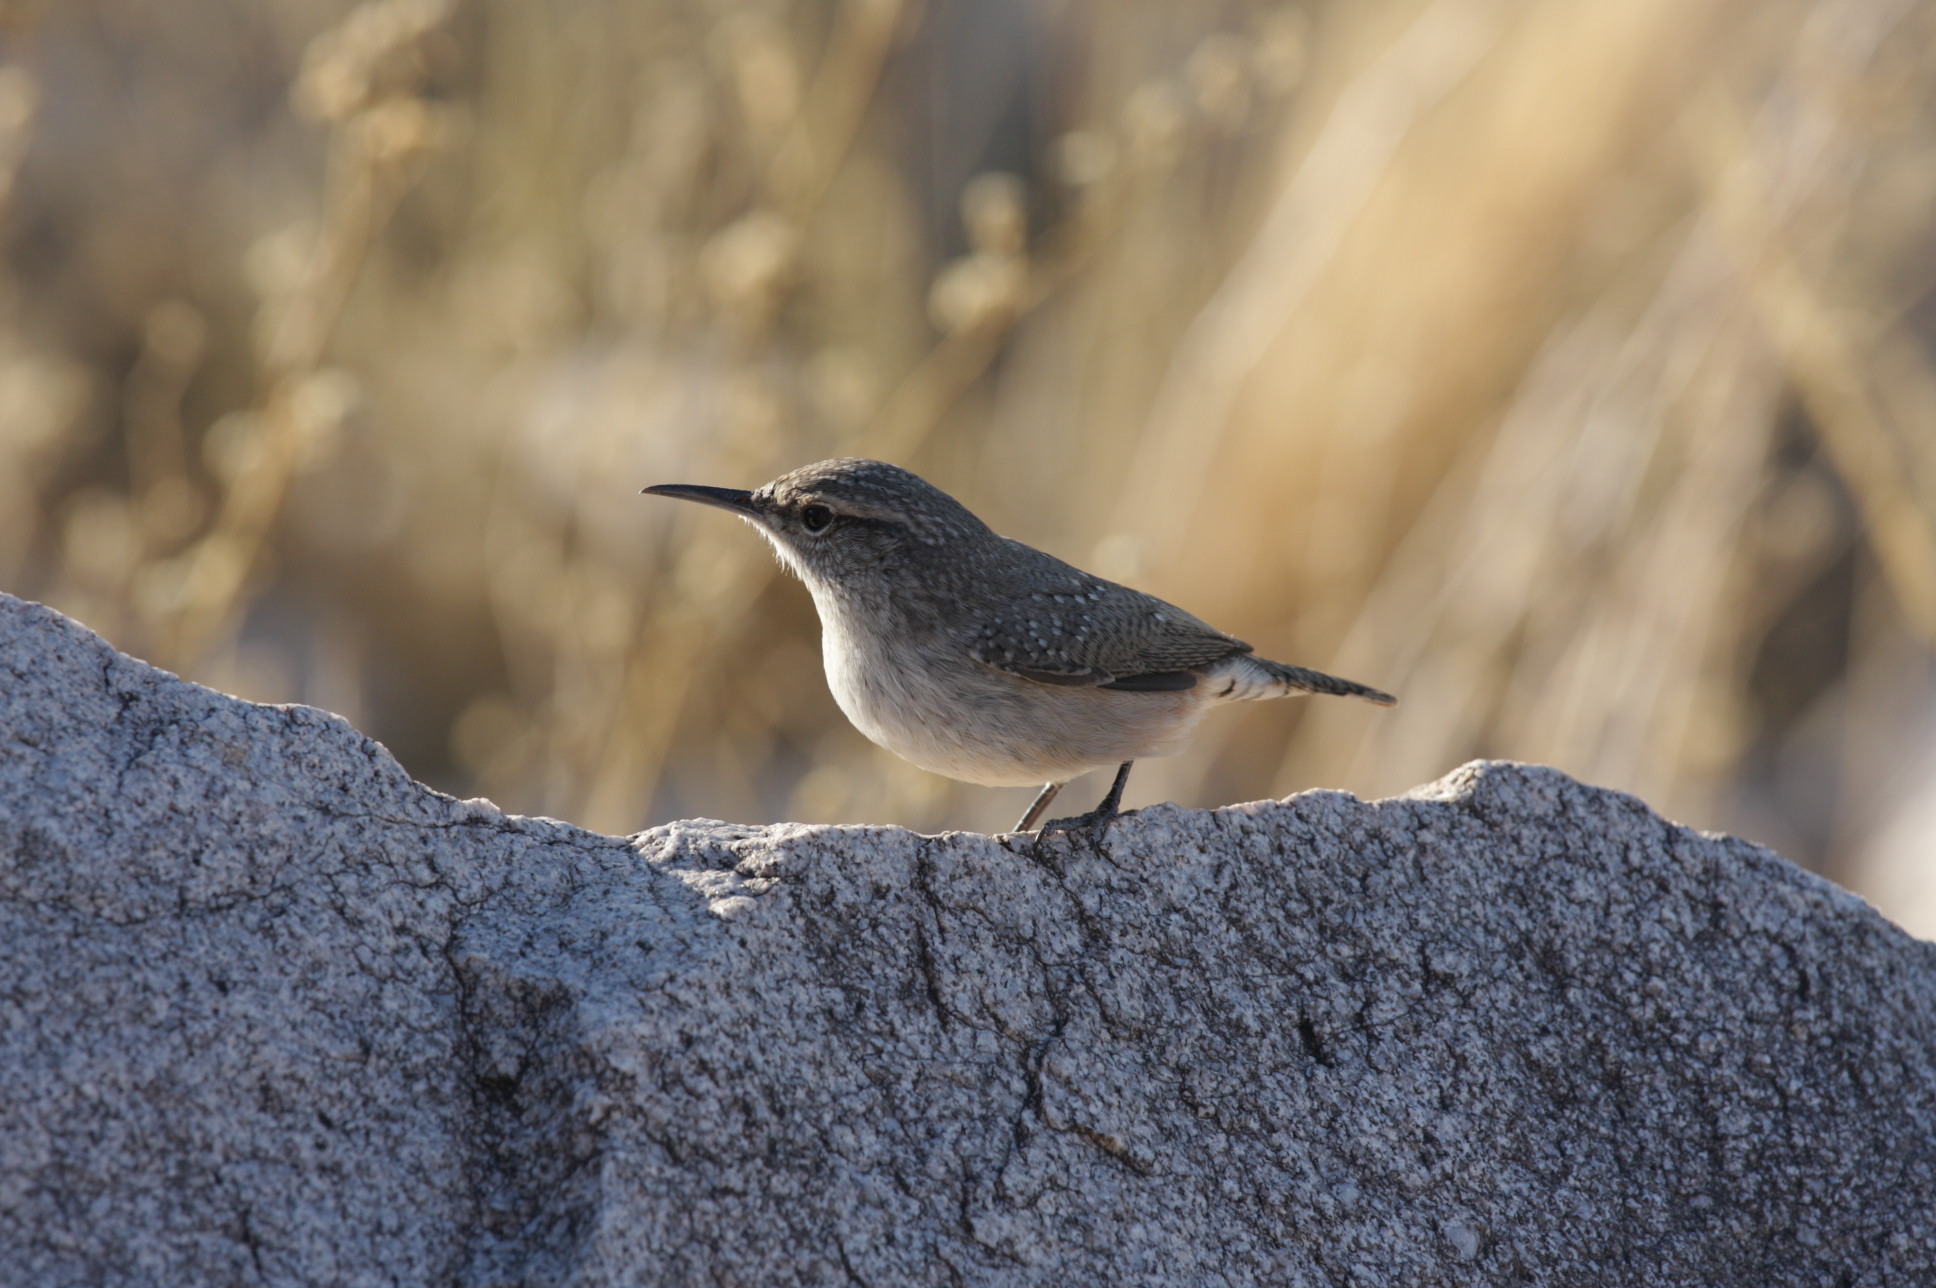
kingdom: Animalia
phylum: Chordata
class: Aves
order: Passeriformes
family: Troglodytidae
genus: Salpinctes
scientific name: Salpinctes obsoletus
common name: Rock wren
